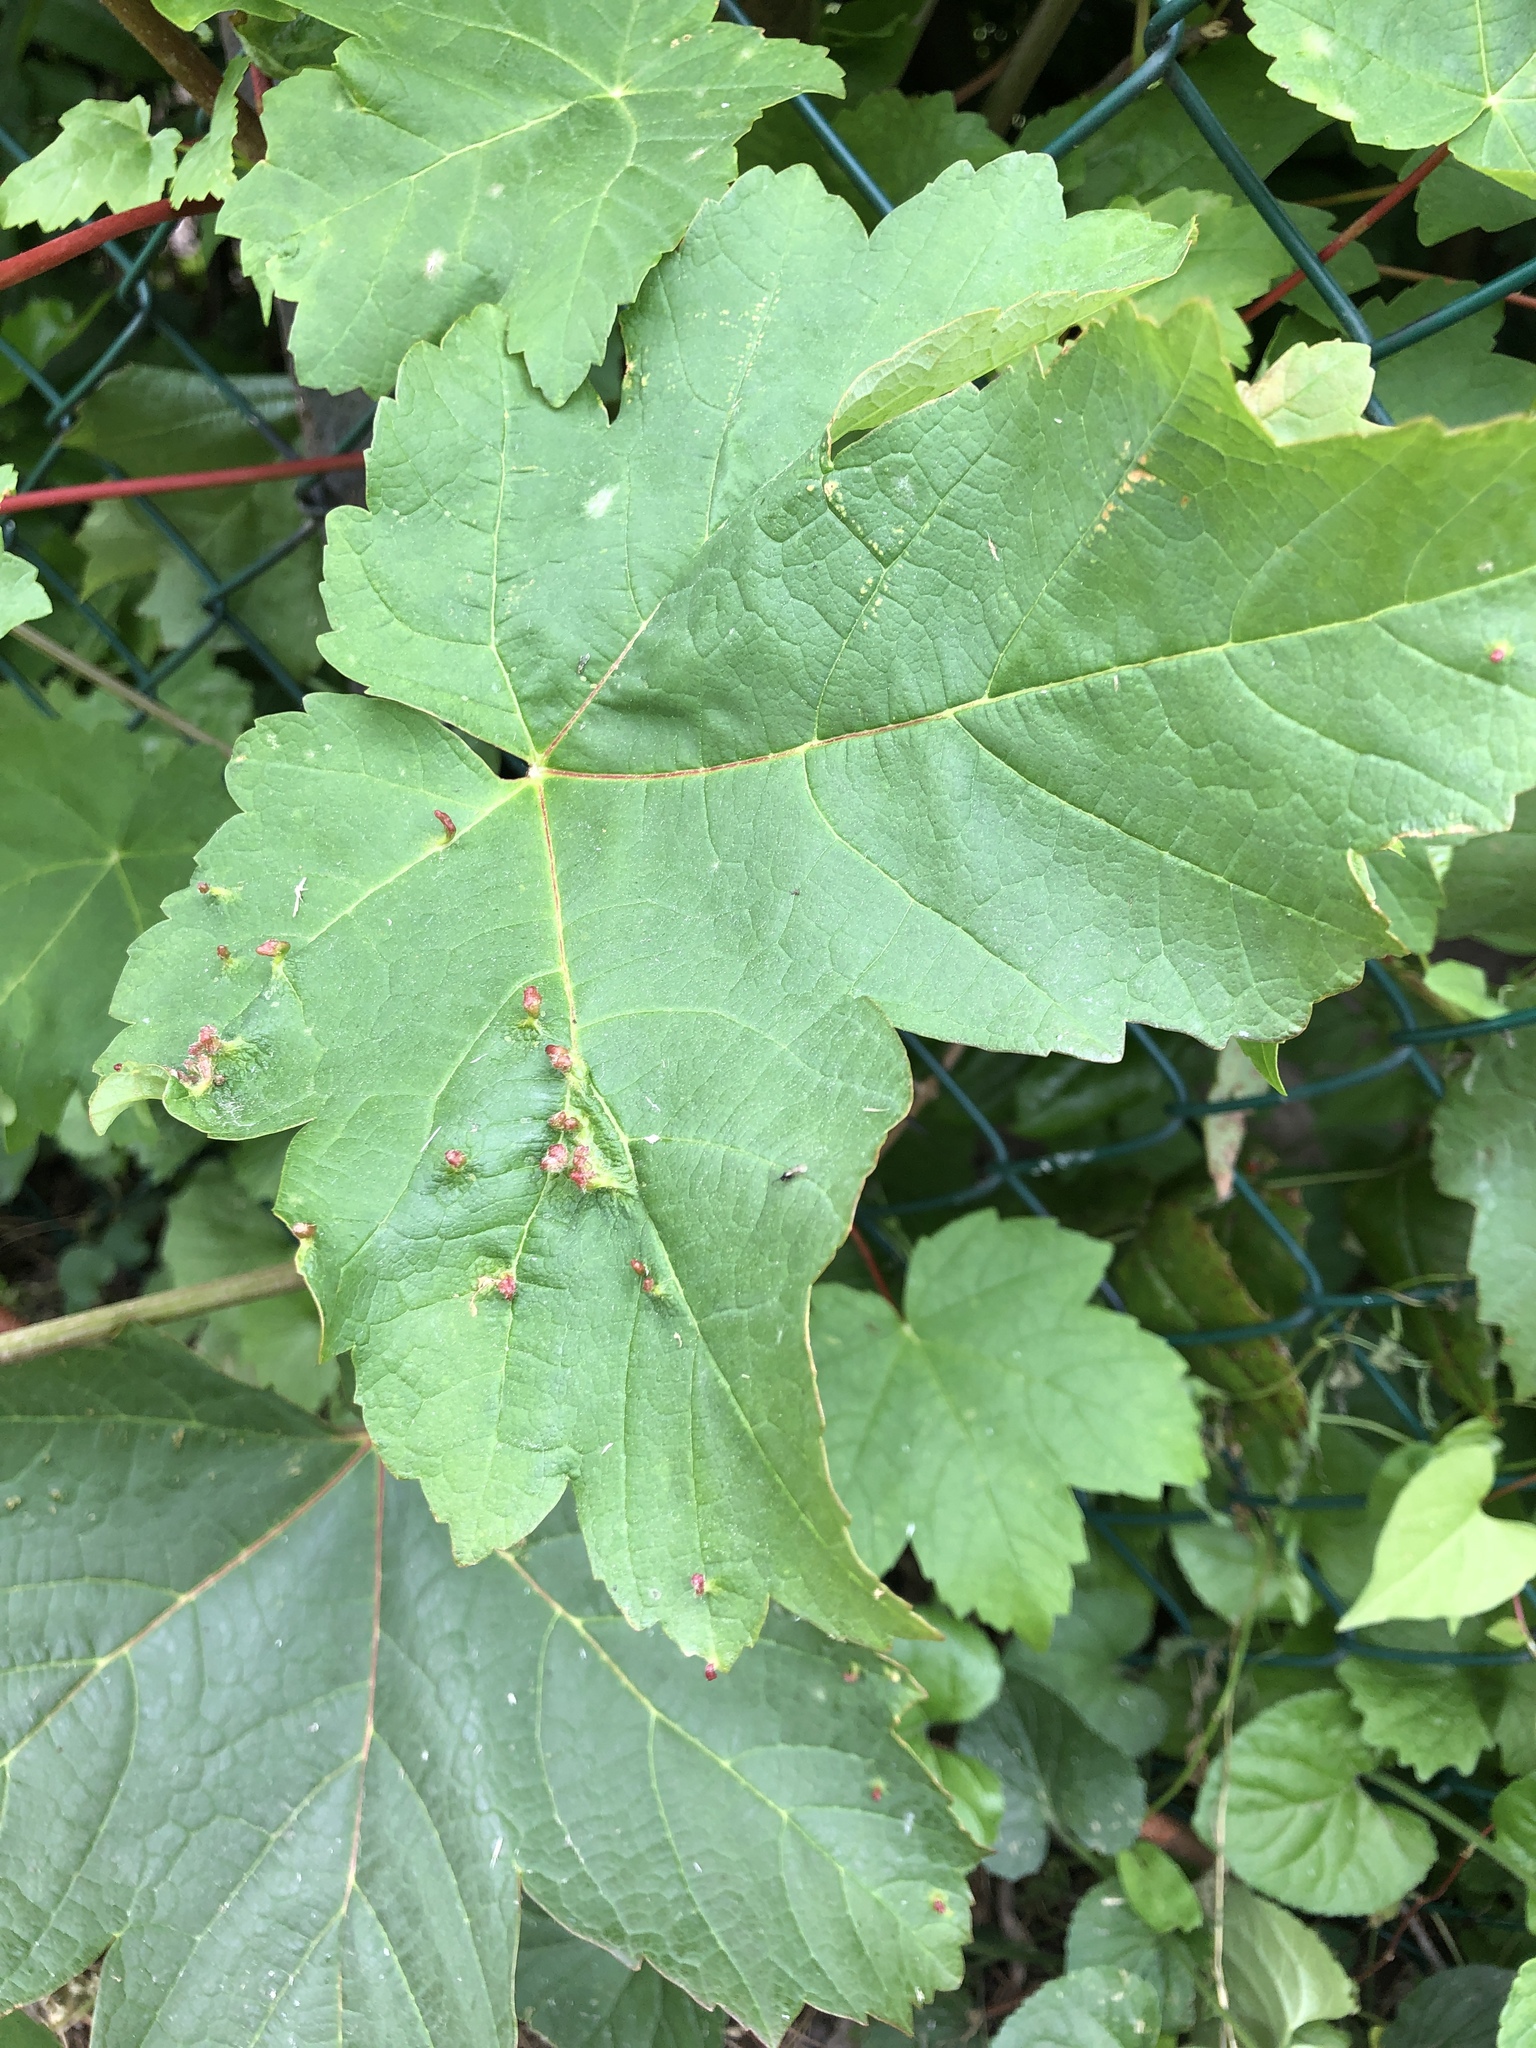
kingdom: Animalia
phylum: Arthropoda
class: Arachnida
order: Trombidiformes
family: Eriophyidae
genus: Aceria
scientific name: Aceria cephaloneus
